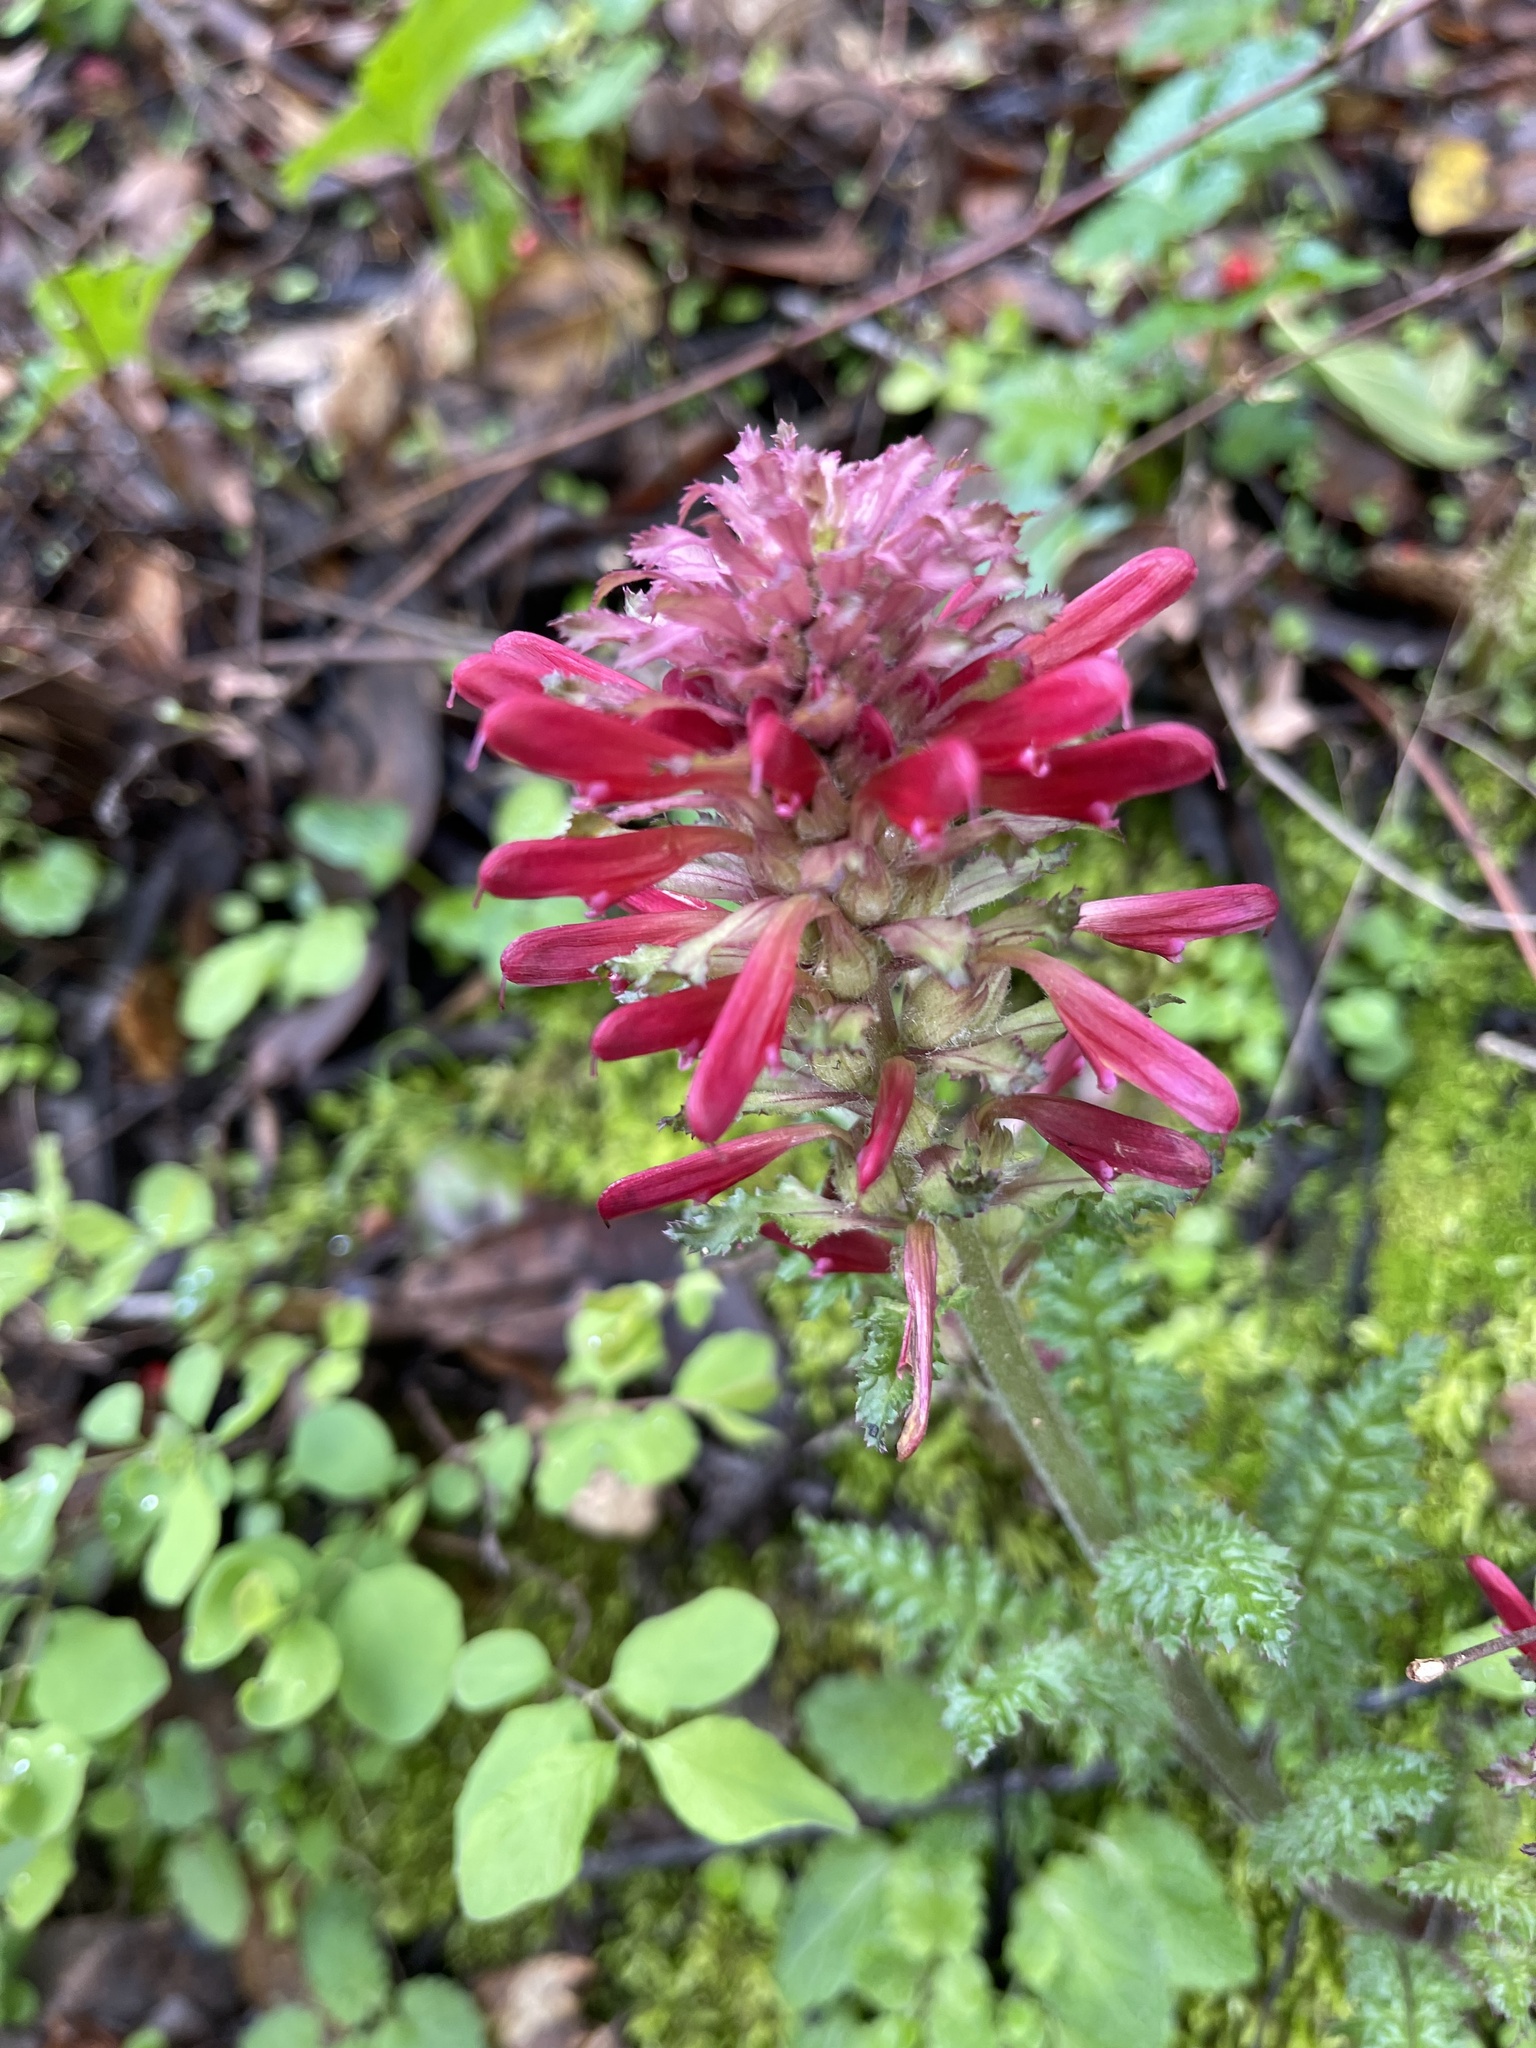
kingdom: Plantae
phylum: Tracheophyta
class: Magnoliopsida
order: Lamiales
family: Orobanchaceae
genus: Pedicularis
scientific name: Pedicularis densiflora
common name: Indian warrior
